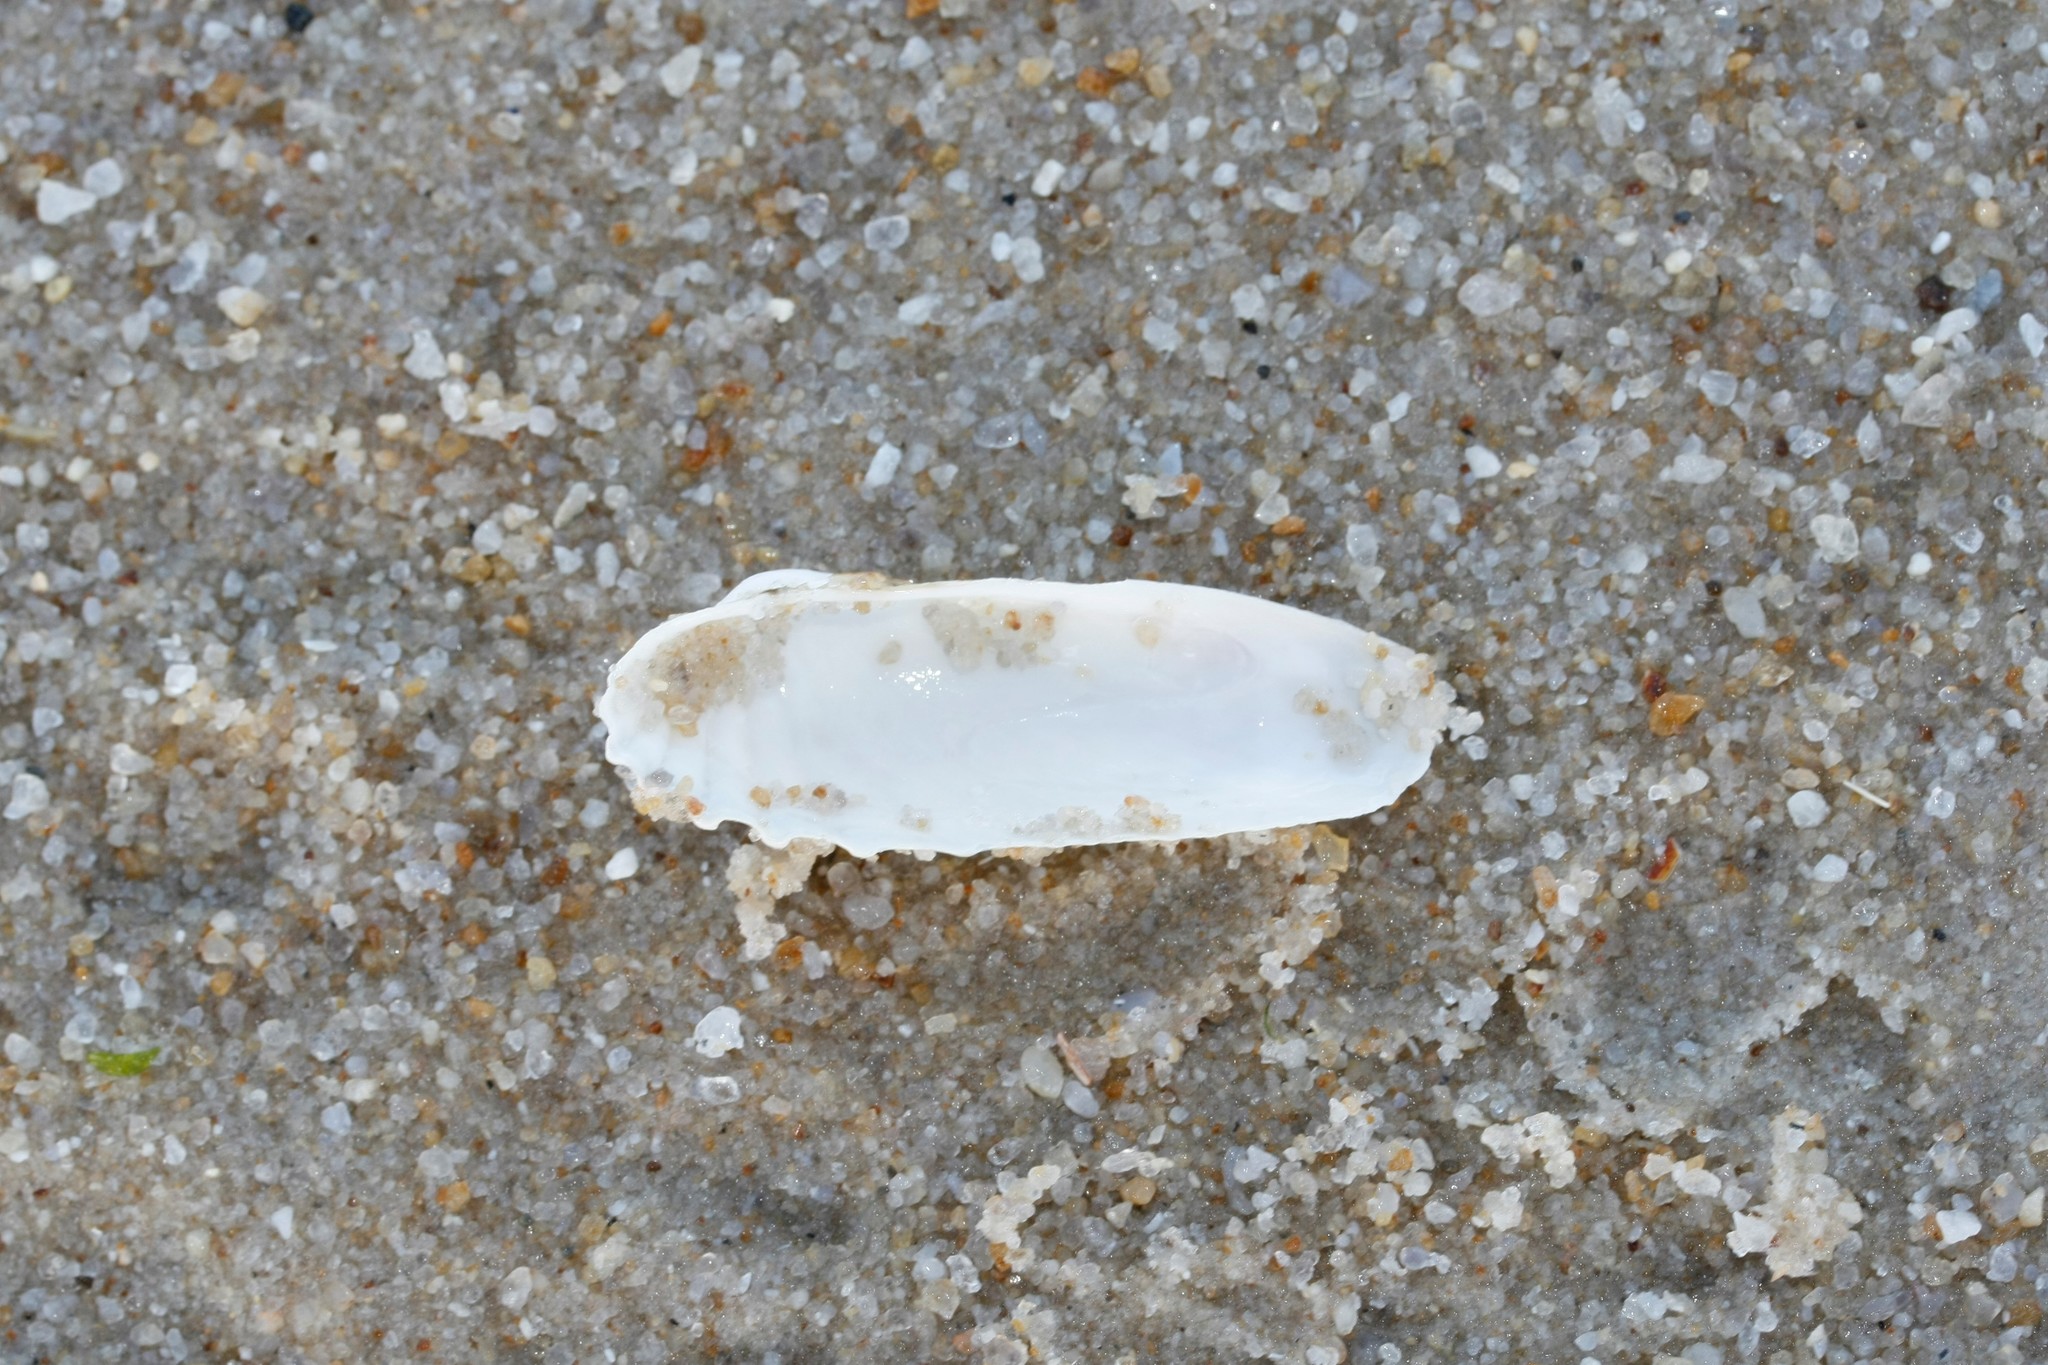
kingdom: Animalia
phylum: Mollusca
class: Bivalvia
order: Venerida
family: Veneridae
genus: Petricolaria
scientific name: Petricolaria pholadiformis
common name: American piddock
